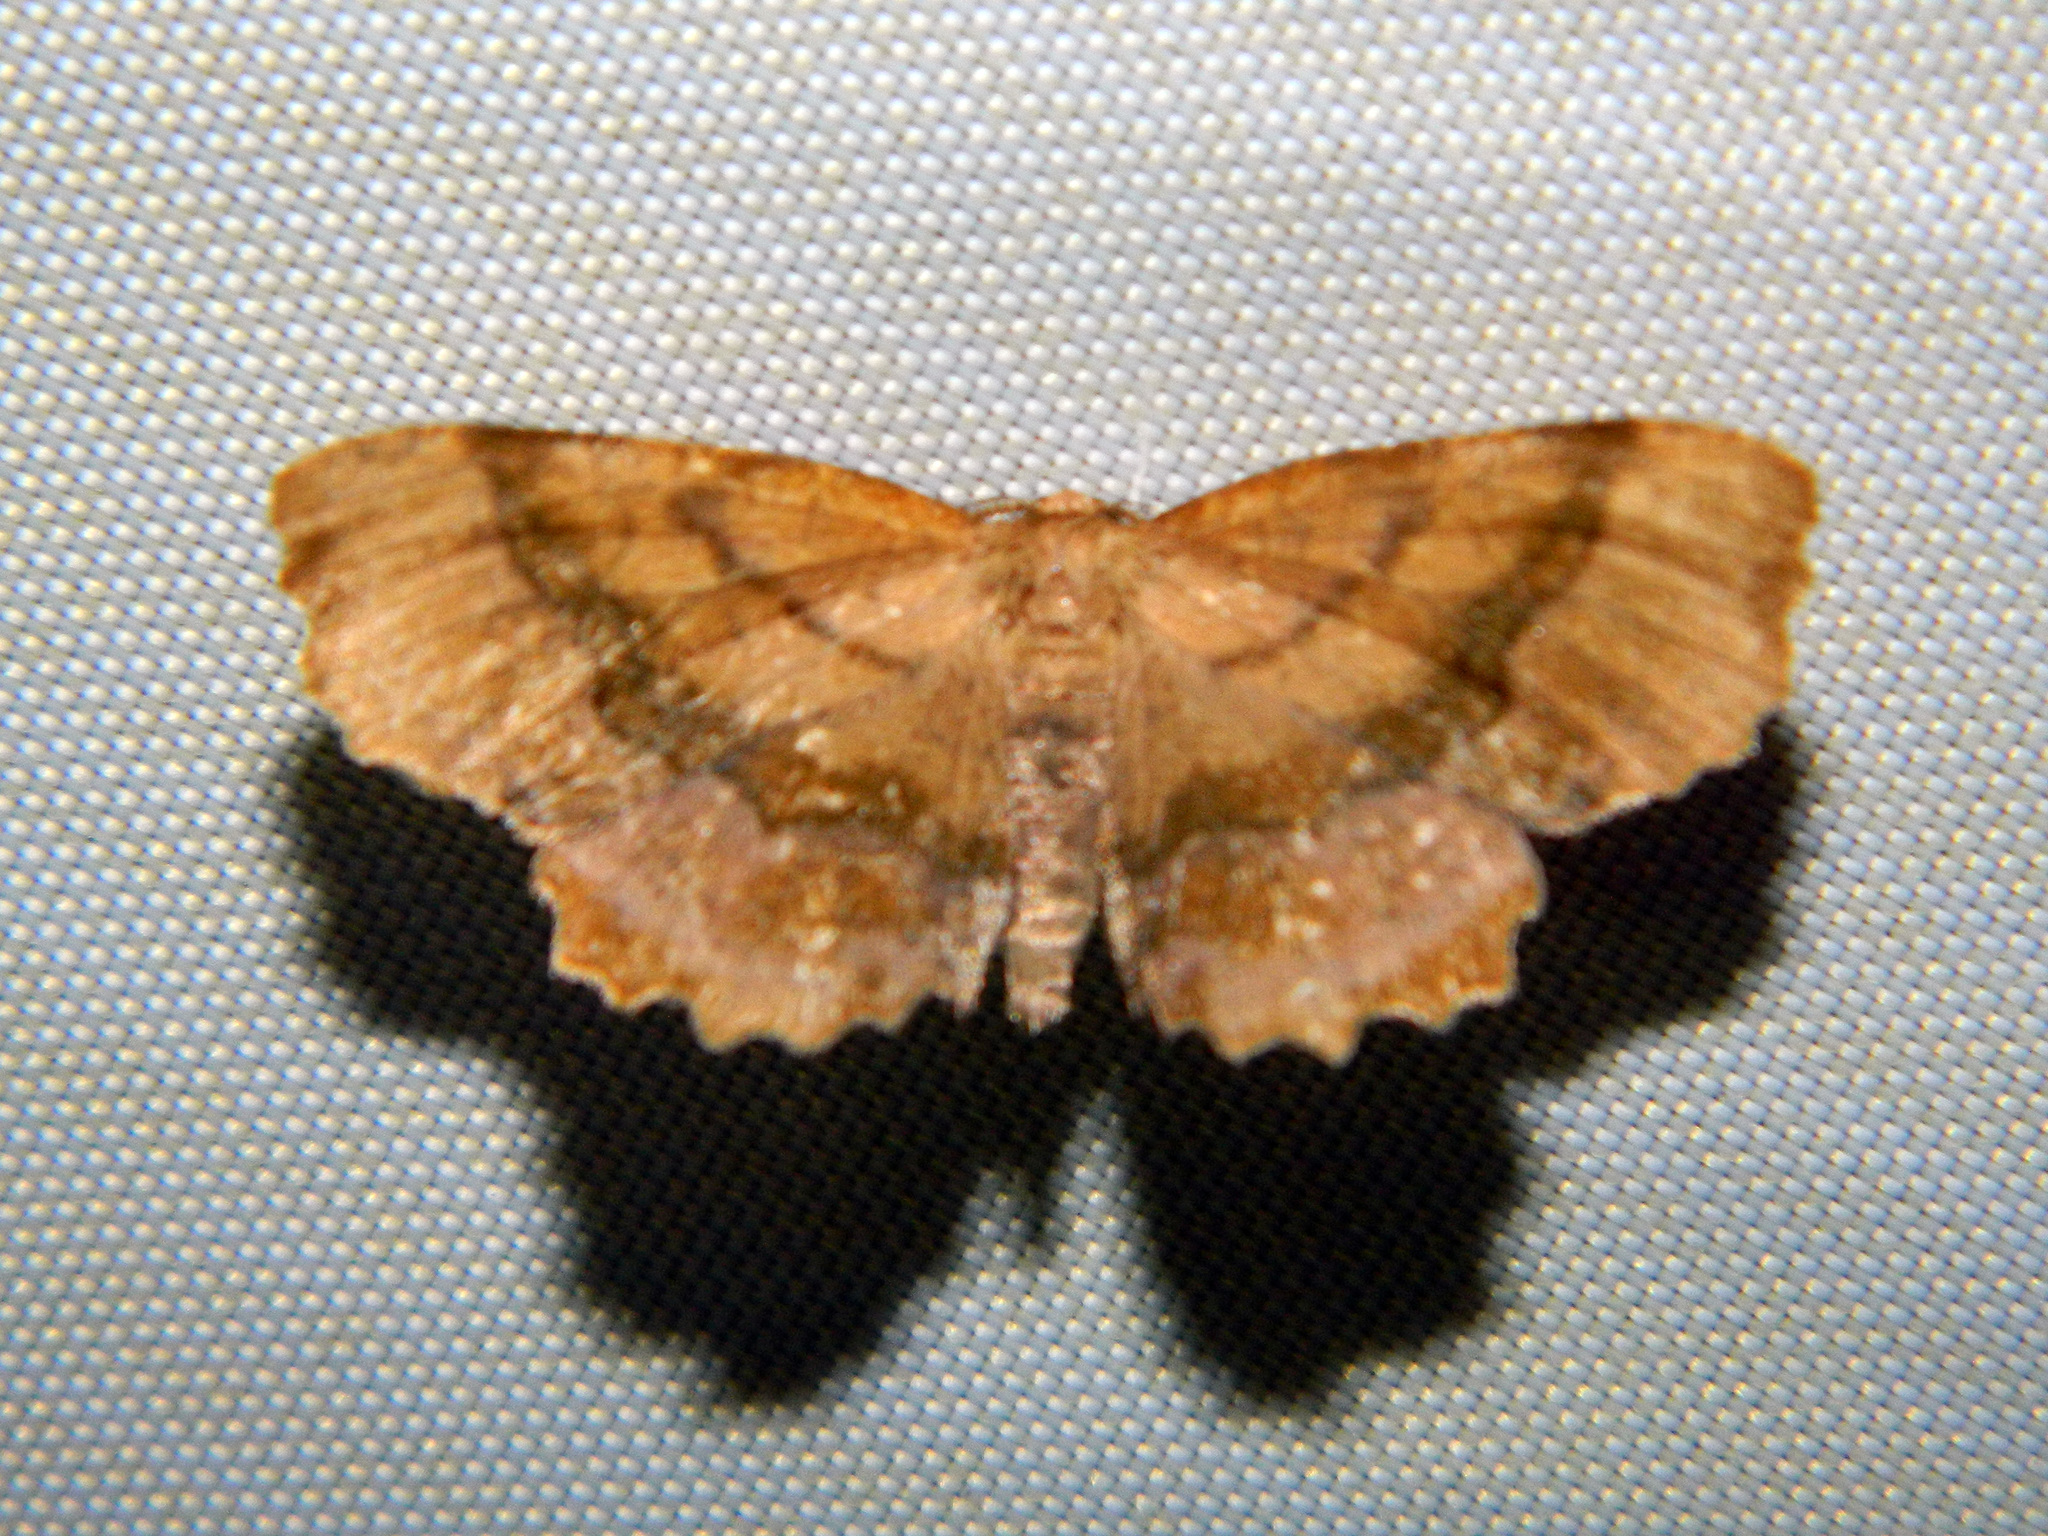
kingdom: Animalia
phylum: Arthropoda
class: Insecta
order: Lepidoptera
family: Geometridae
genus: Cepphis
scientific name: Cepphis armataria
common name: Scallop moth
